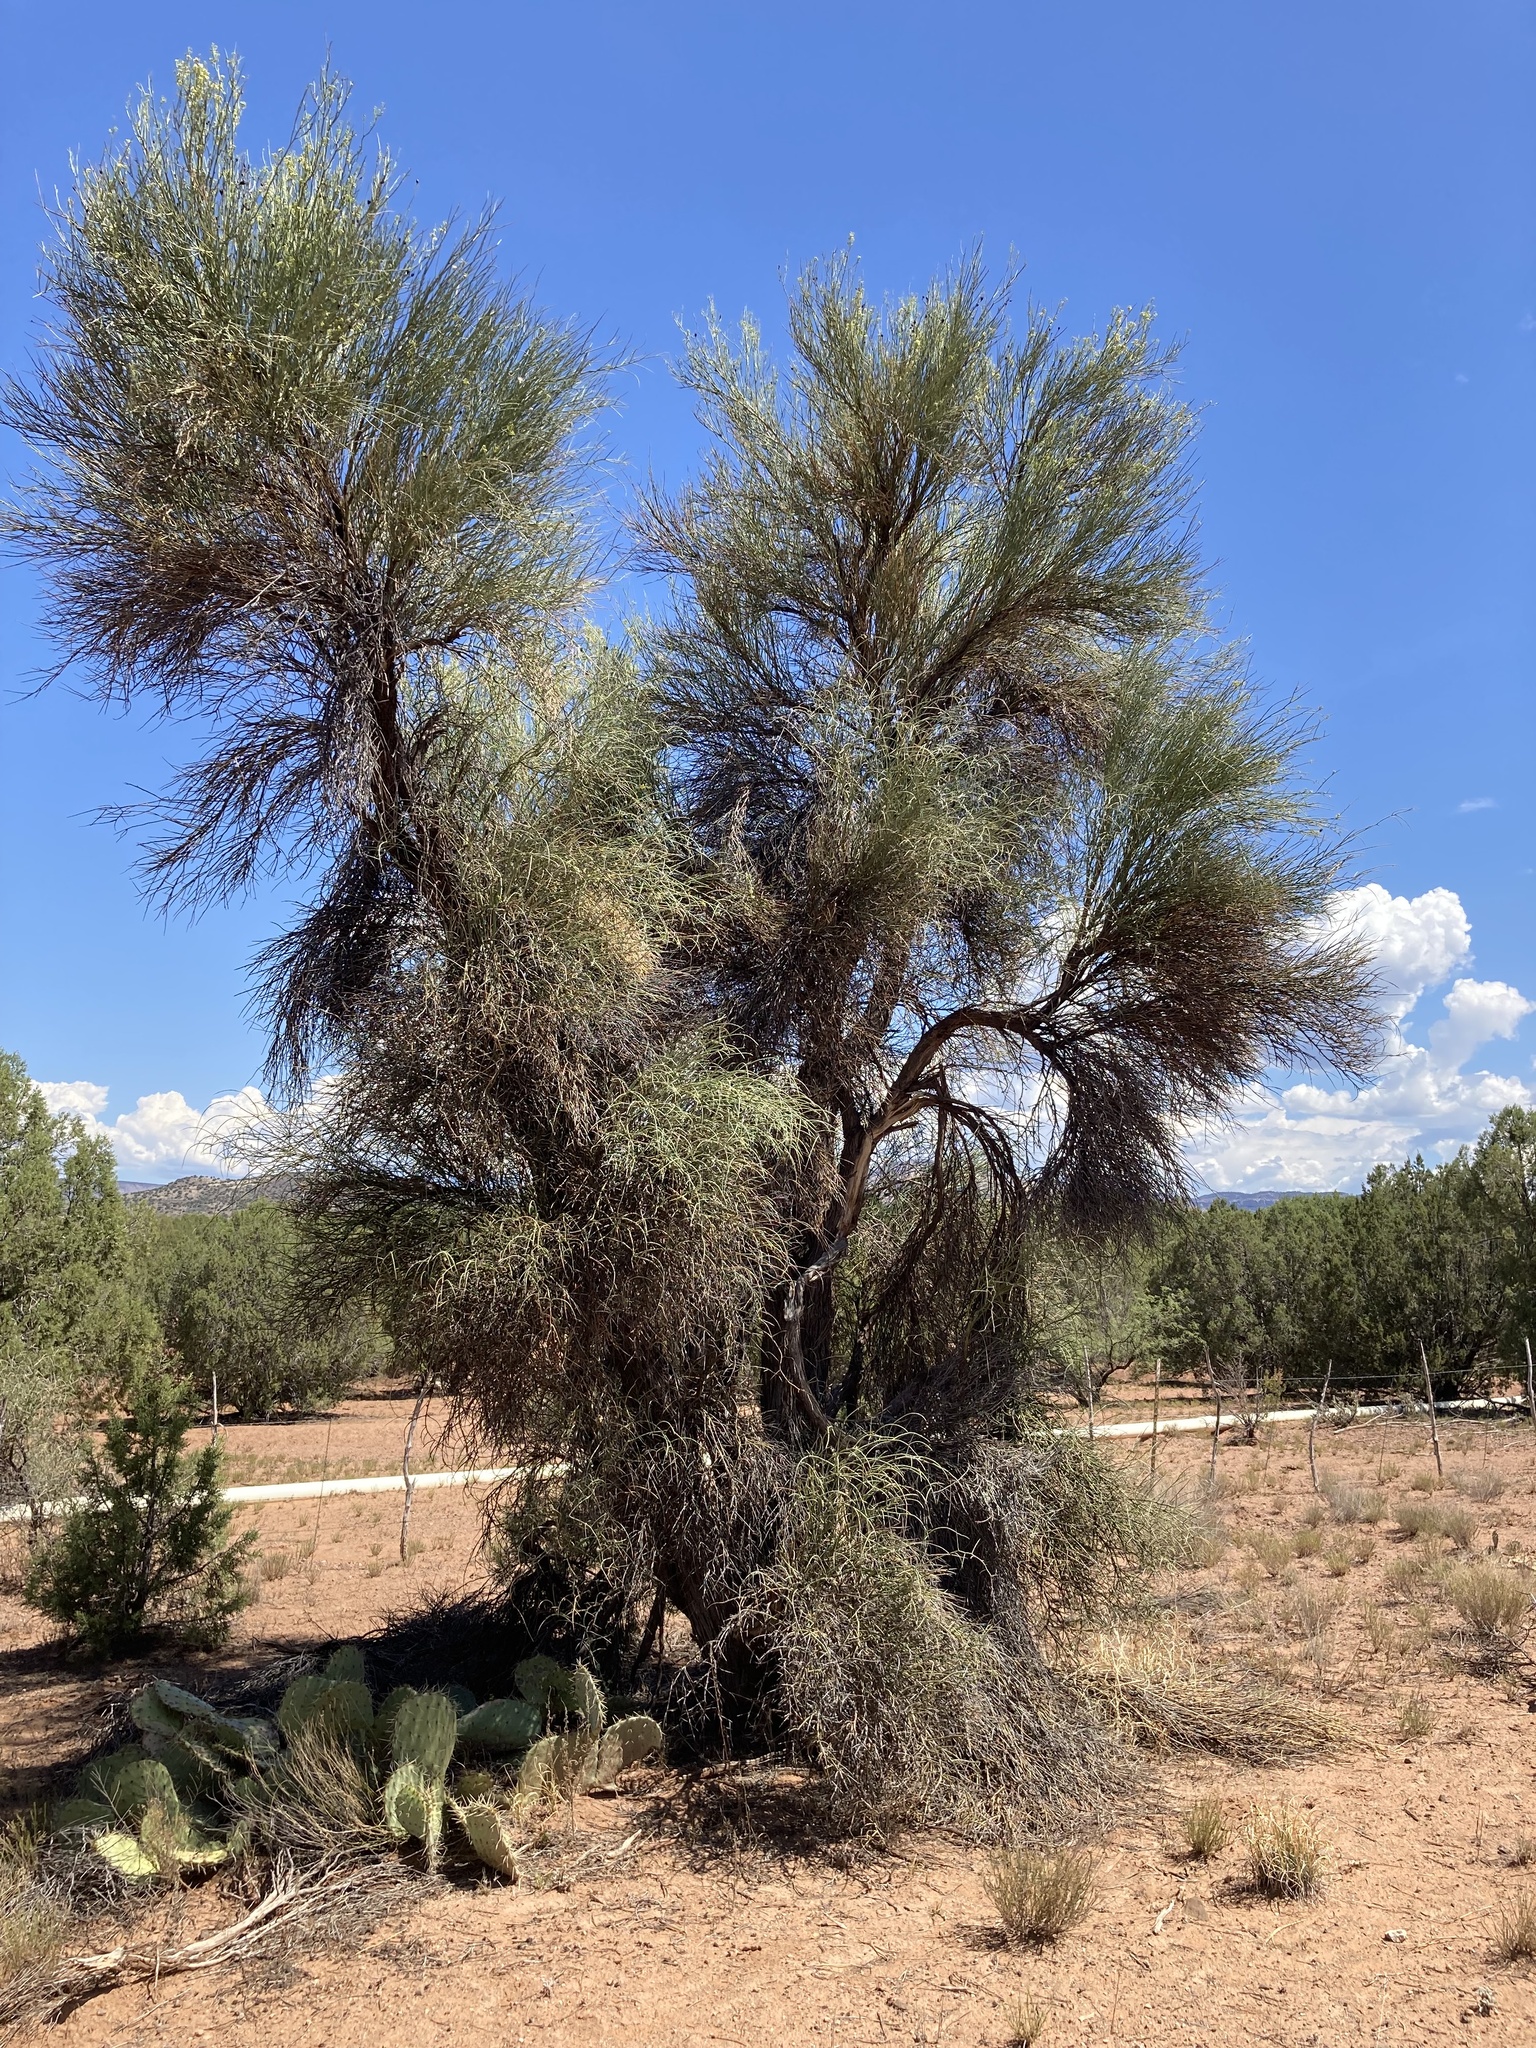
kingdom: Plantae
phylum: Tracheophyta
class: Magnoliopsida
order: Celastrales
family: Celastraceae
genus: Canotia
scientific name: Canotia holacantha
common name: Crucifixion thorns
